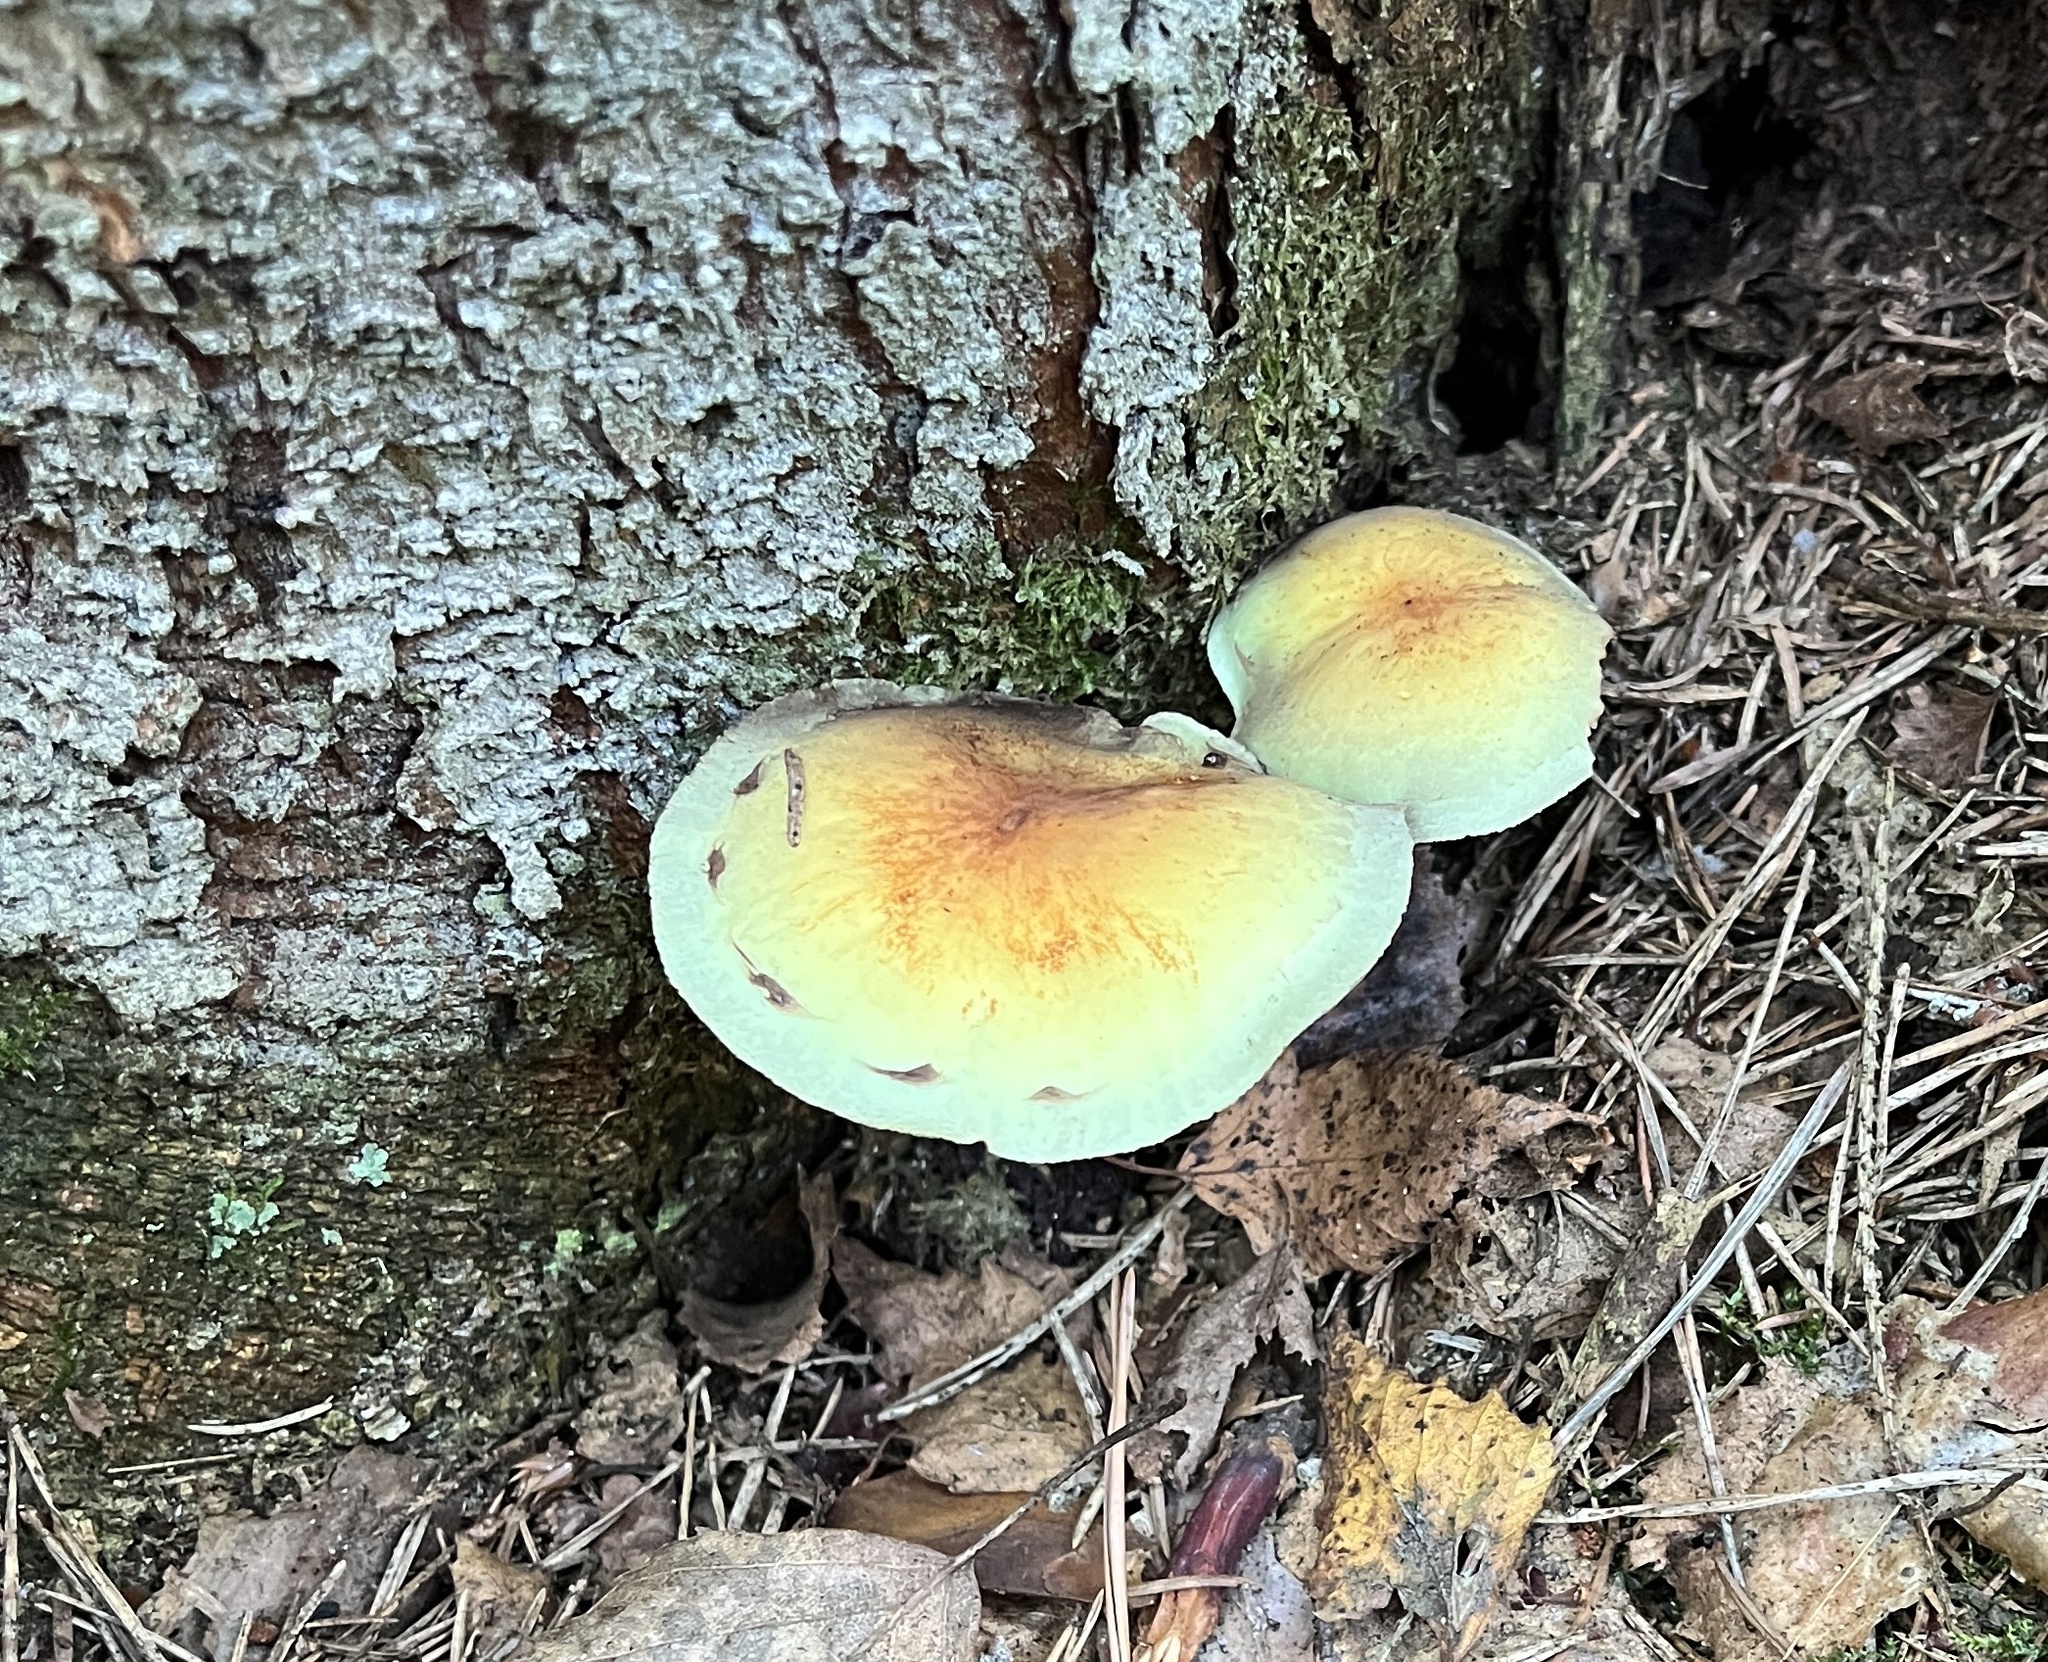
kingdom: Fungi
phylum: Basidiomycota
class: Agaricomycetes
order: Agaricales
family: Strophariaceae
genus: Hypholoma
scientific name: Hypholoma fasciculare
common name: Sulphur tuft
